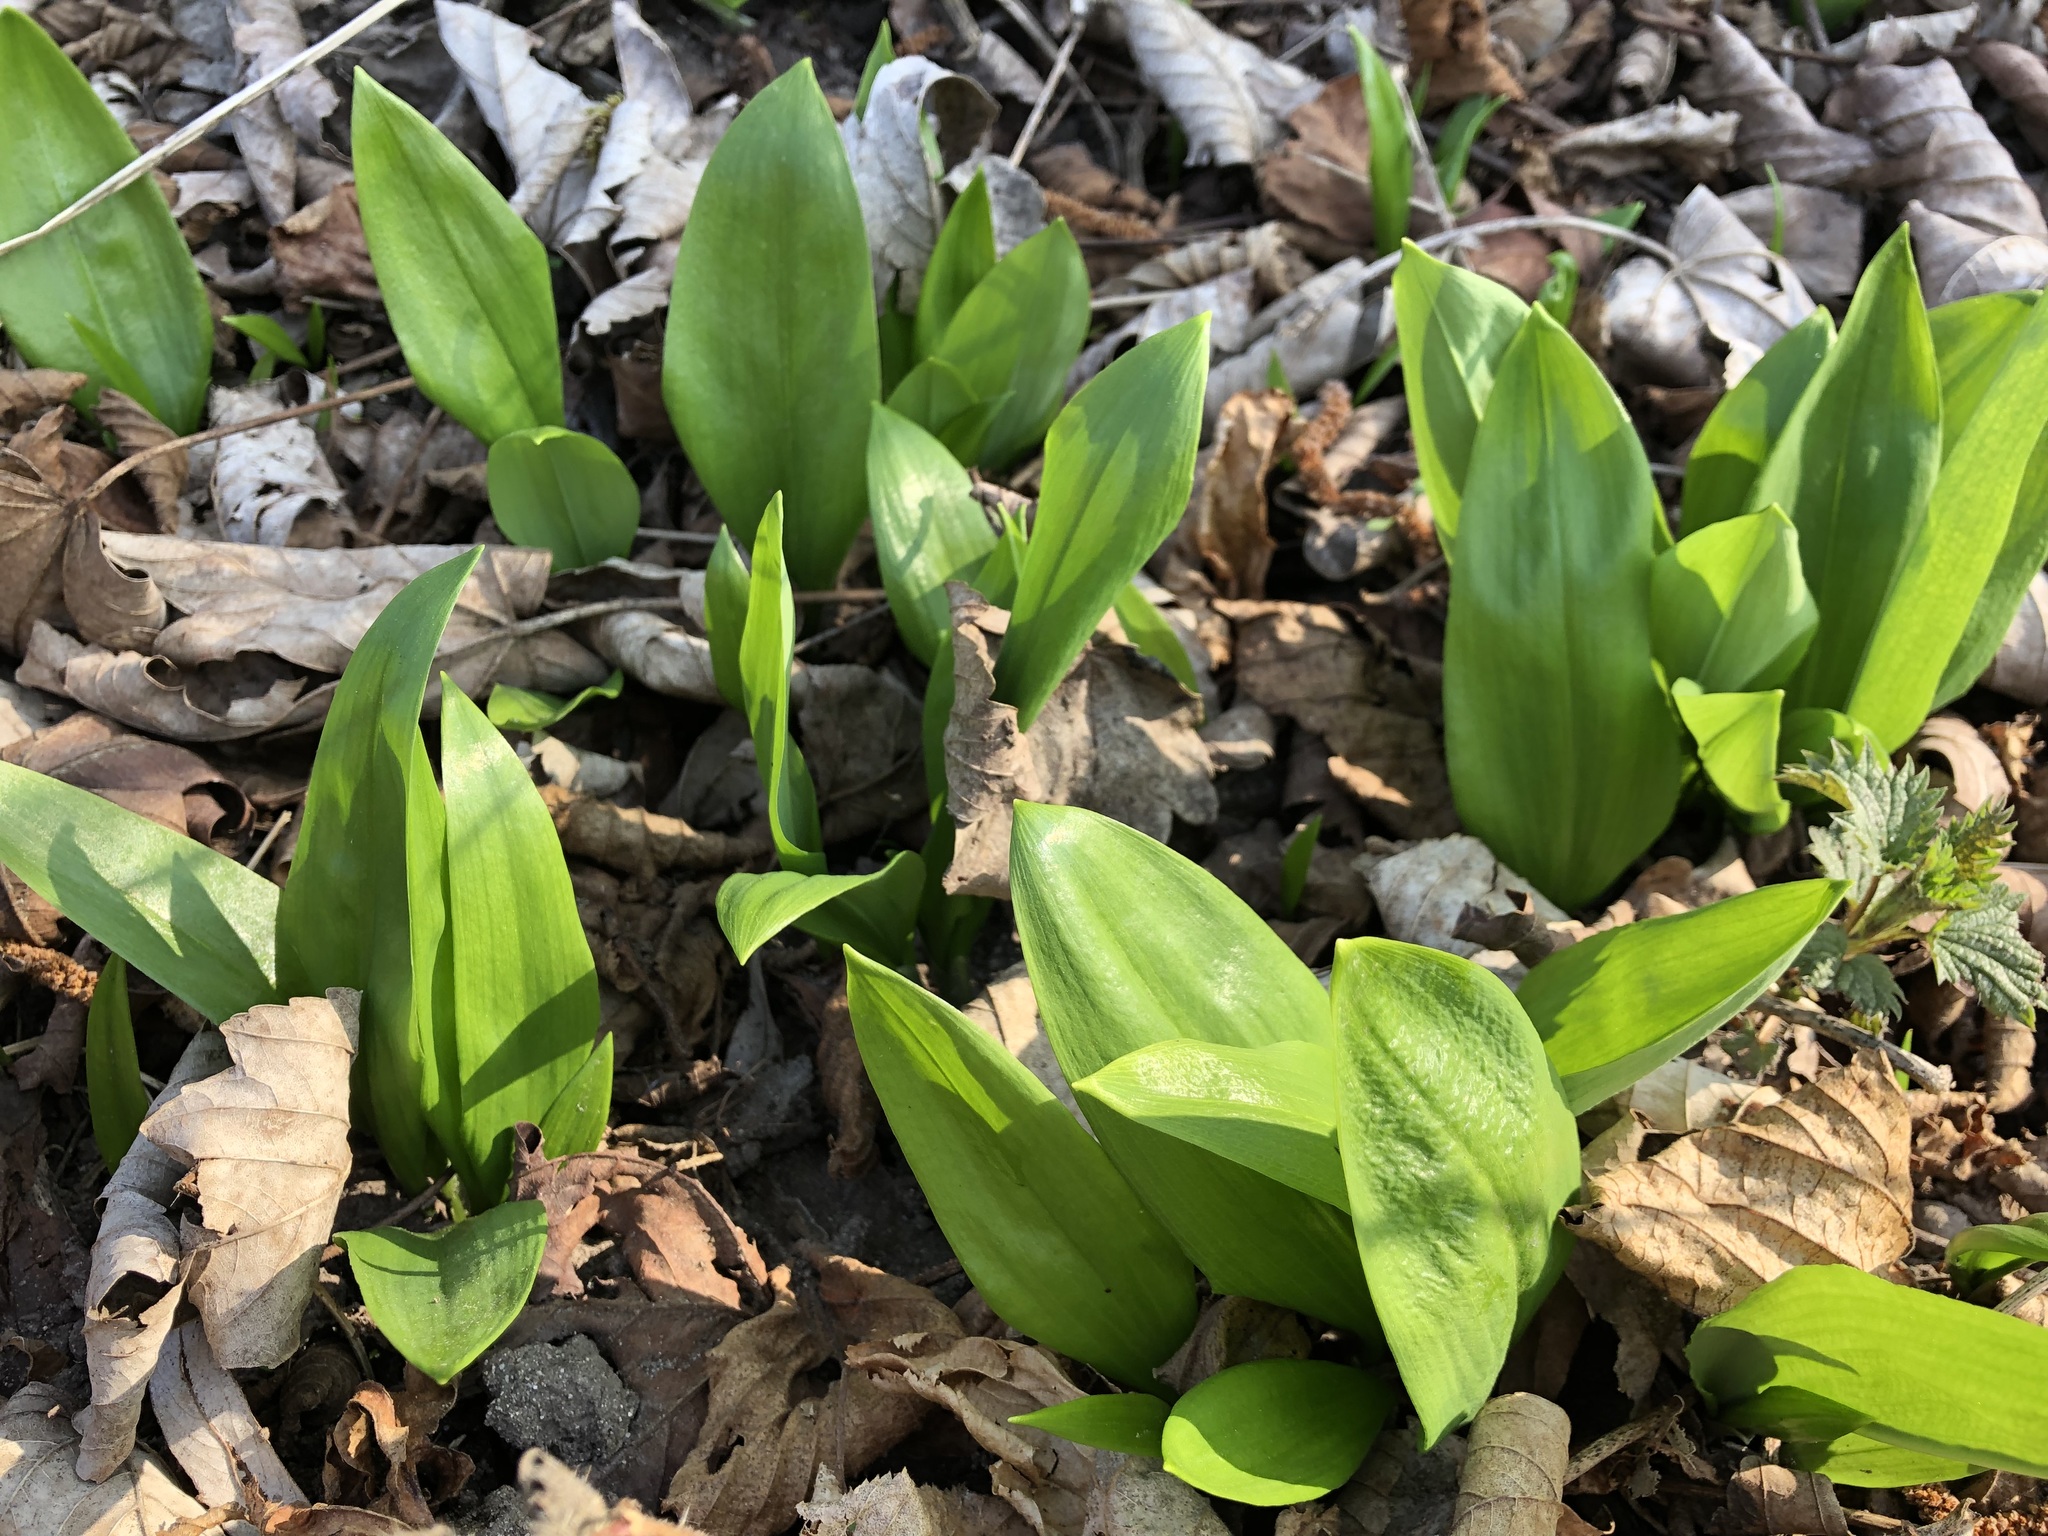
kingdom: Plantae
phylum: Tracheophyta
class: Liliopsida
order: Asparagales
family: Amaryllidaceae
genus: Allium
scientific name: Allium ursinum
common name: Ramsons
